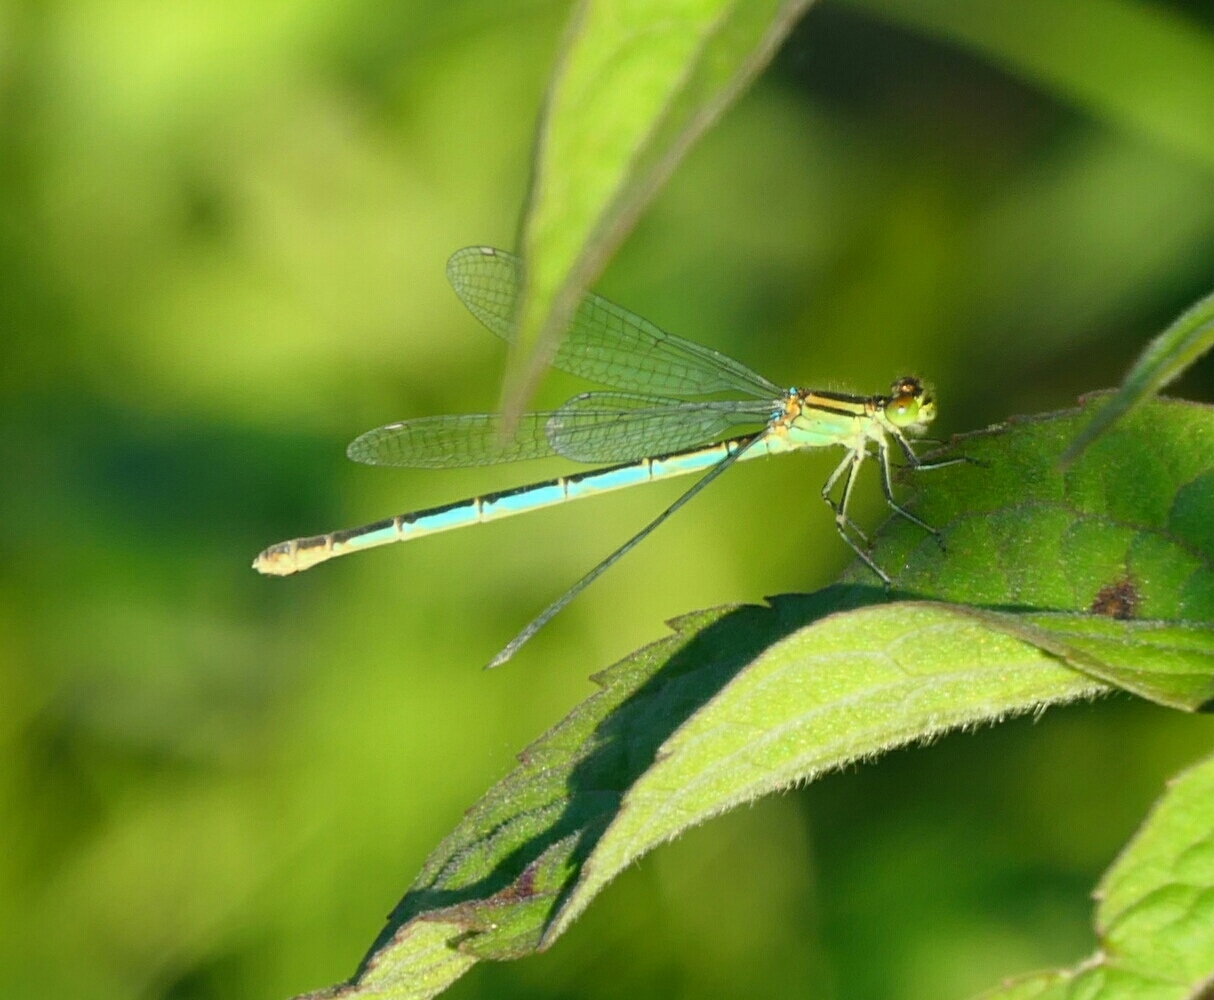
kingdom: Animalia
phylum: Arthropoda
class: Insecta
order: Odonata
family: Coenagrionidae
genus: Erythromma
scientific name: Erythromma lindenii
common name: Blue-eye
